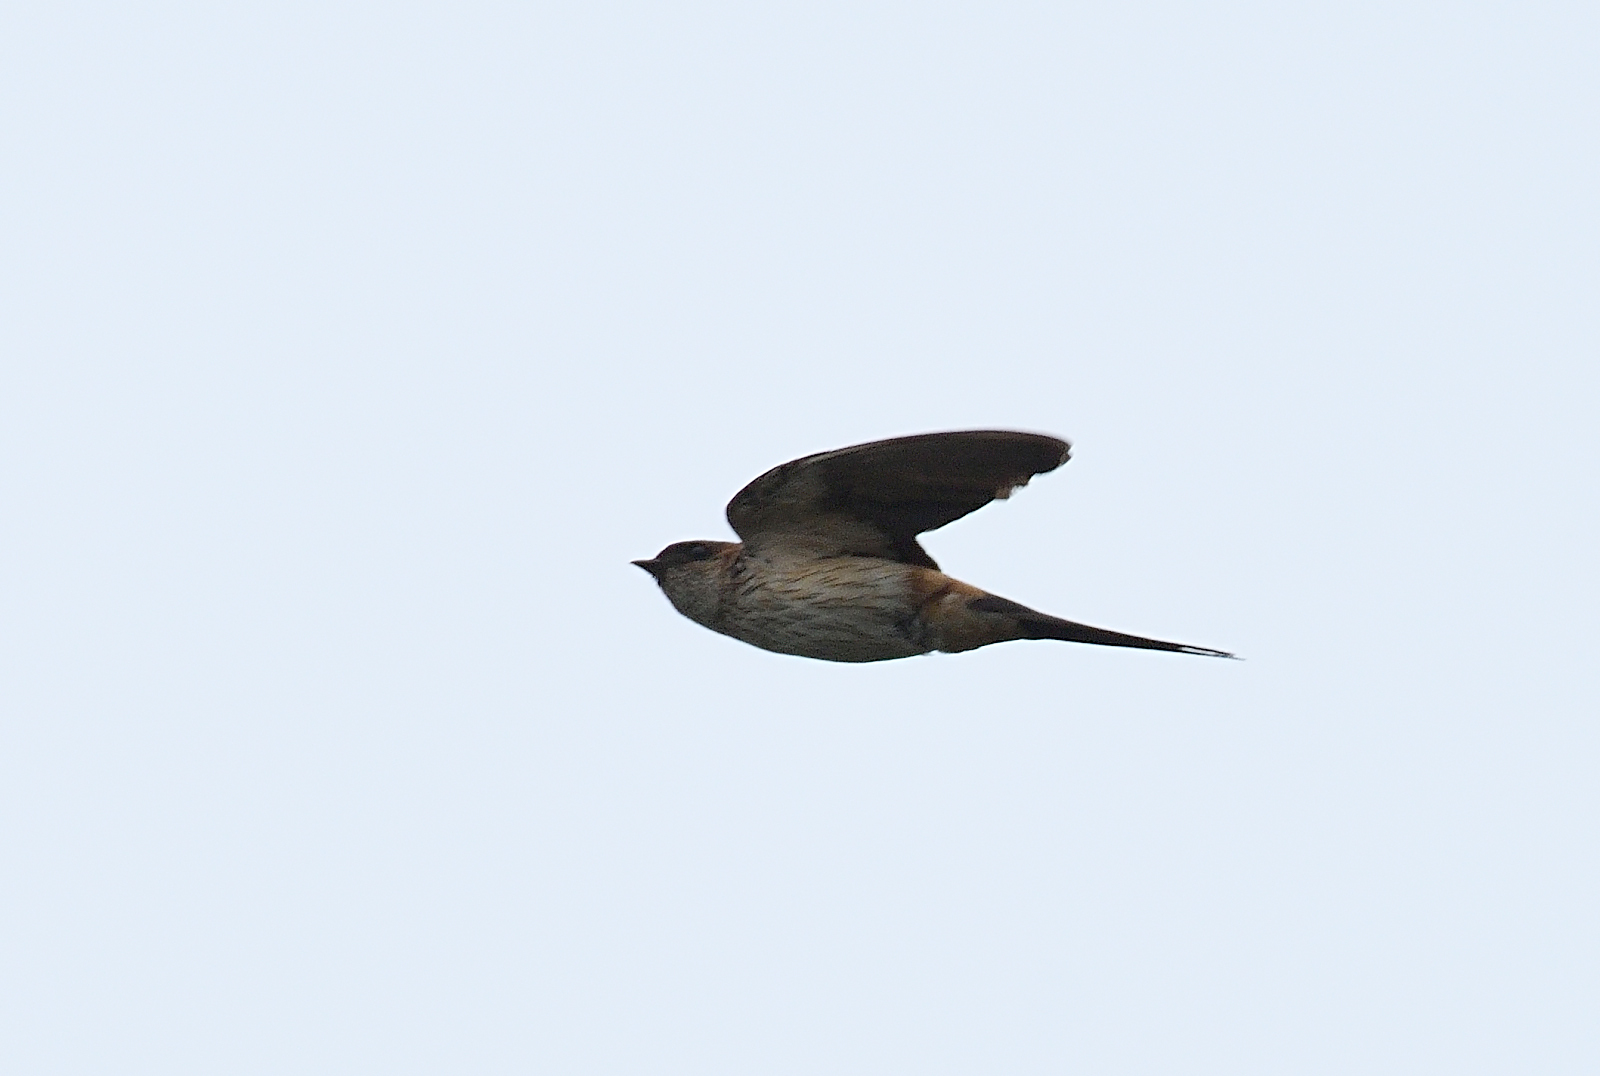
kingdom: Animalia
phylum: Chordata
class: Aves
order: Passeriformes
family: Hirundinidae
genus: Cecropis
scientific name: Cecropis daurica
